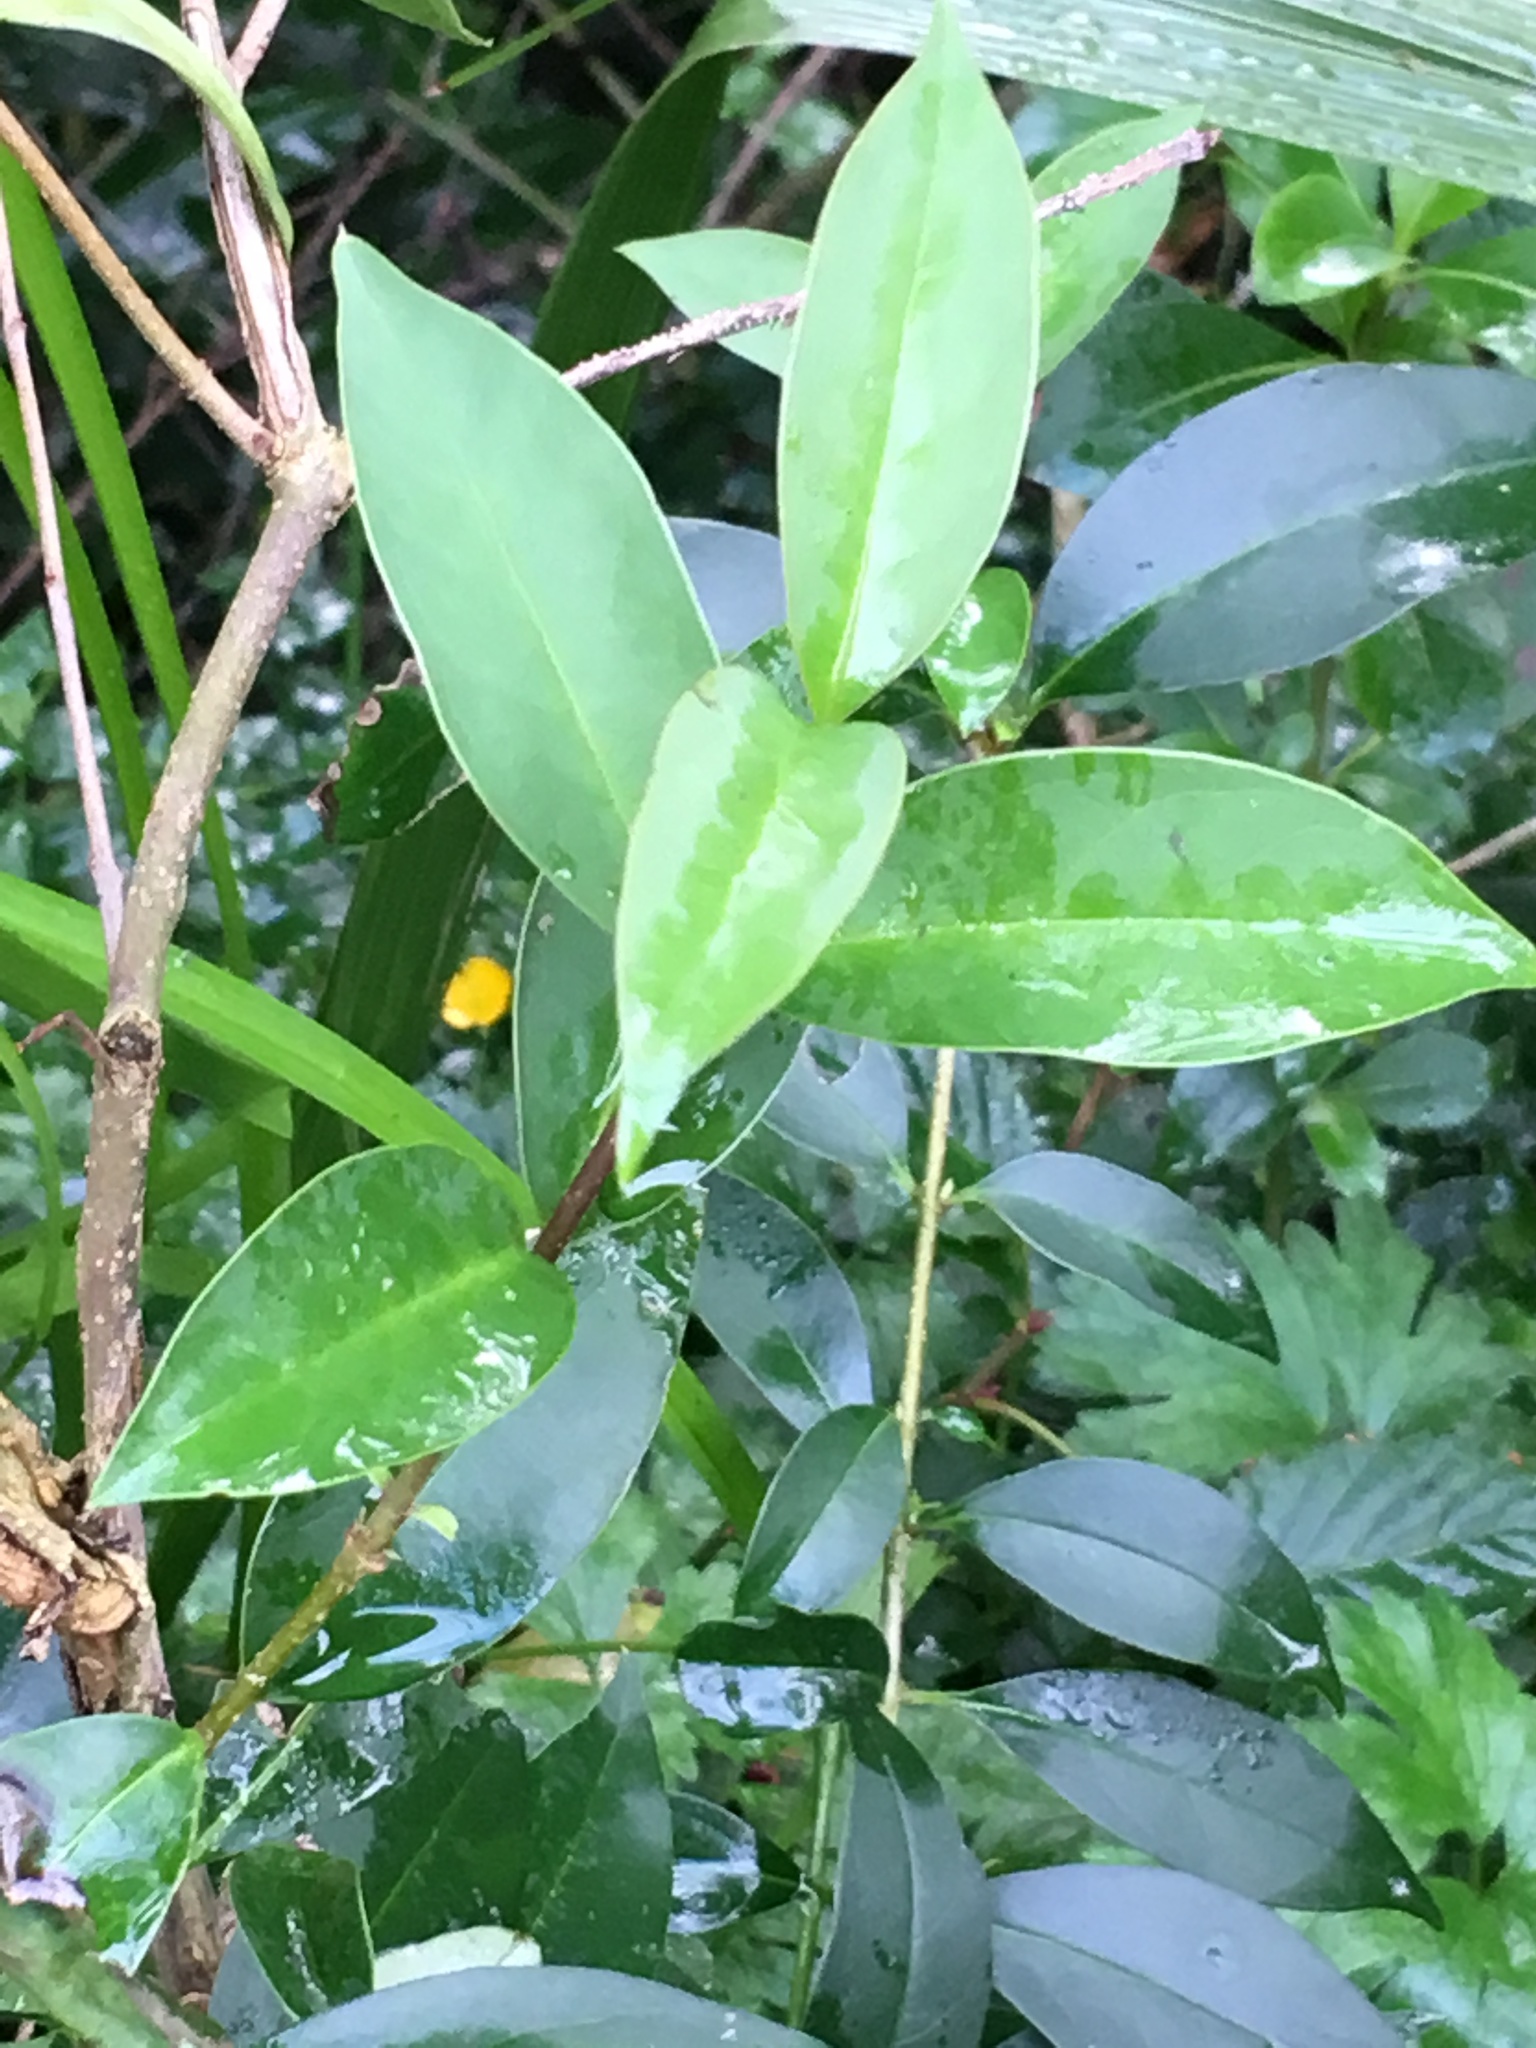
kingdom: Plantae
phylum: Tracheophyta
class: Magnoliopsida
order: Lamiales
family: Oleaceae
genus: Ligustrum
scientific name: Ligustrum lucidum
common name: Glossy privet
